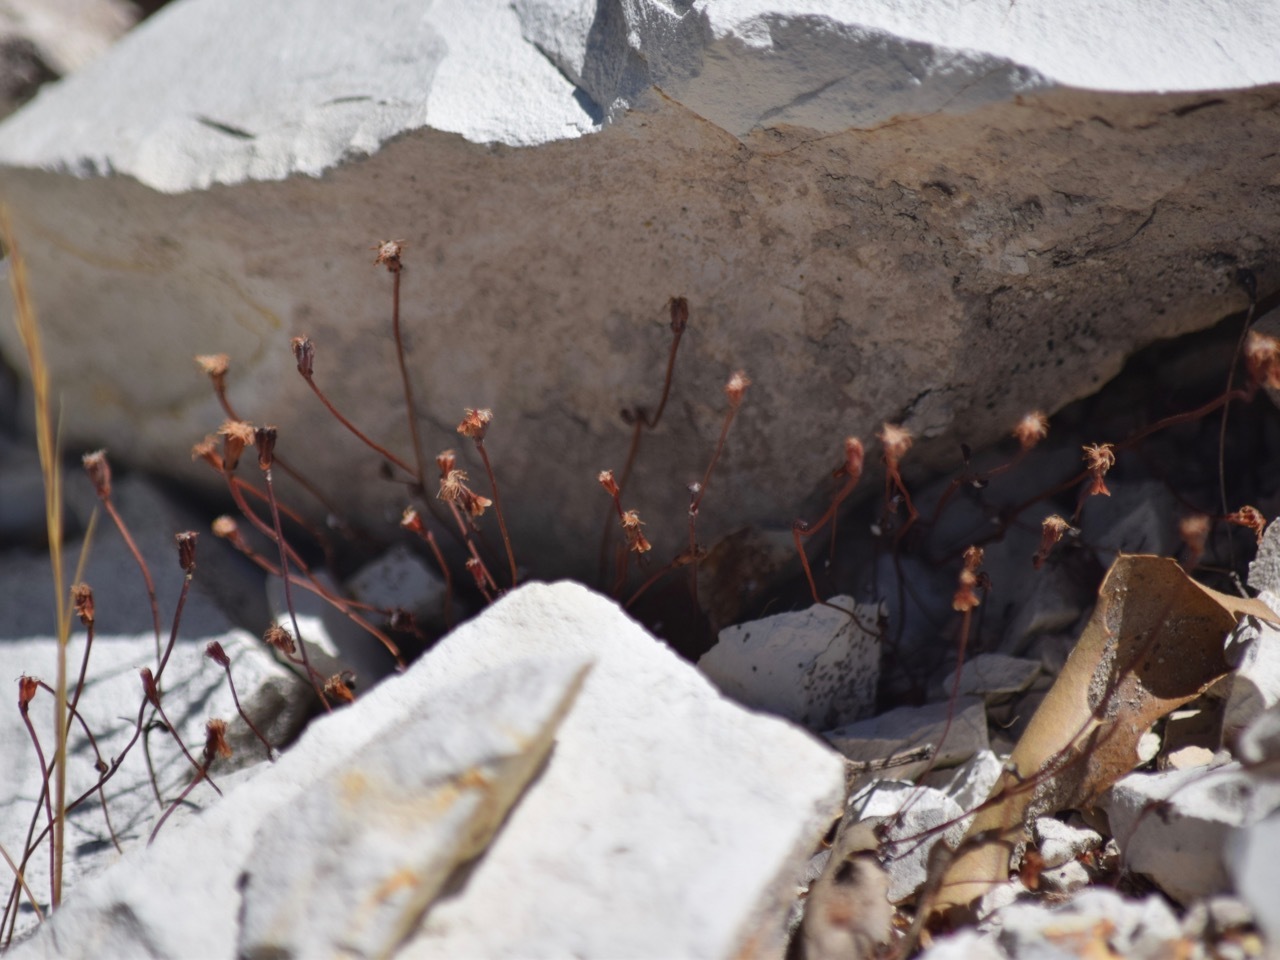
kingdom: Plantae
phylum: Tracheophyta
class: Magnoliopsida
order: Caryophyllales
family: Polygonaceae
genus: Eriogonum
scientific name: Eriogonum nortonii
